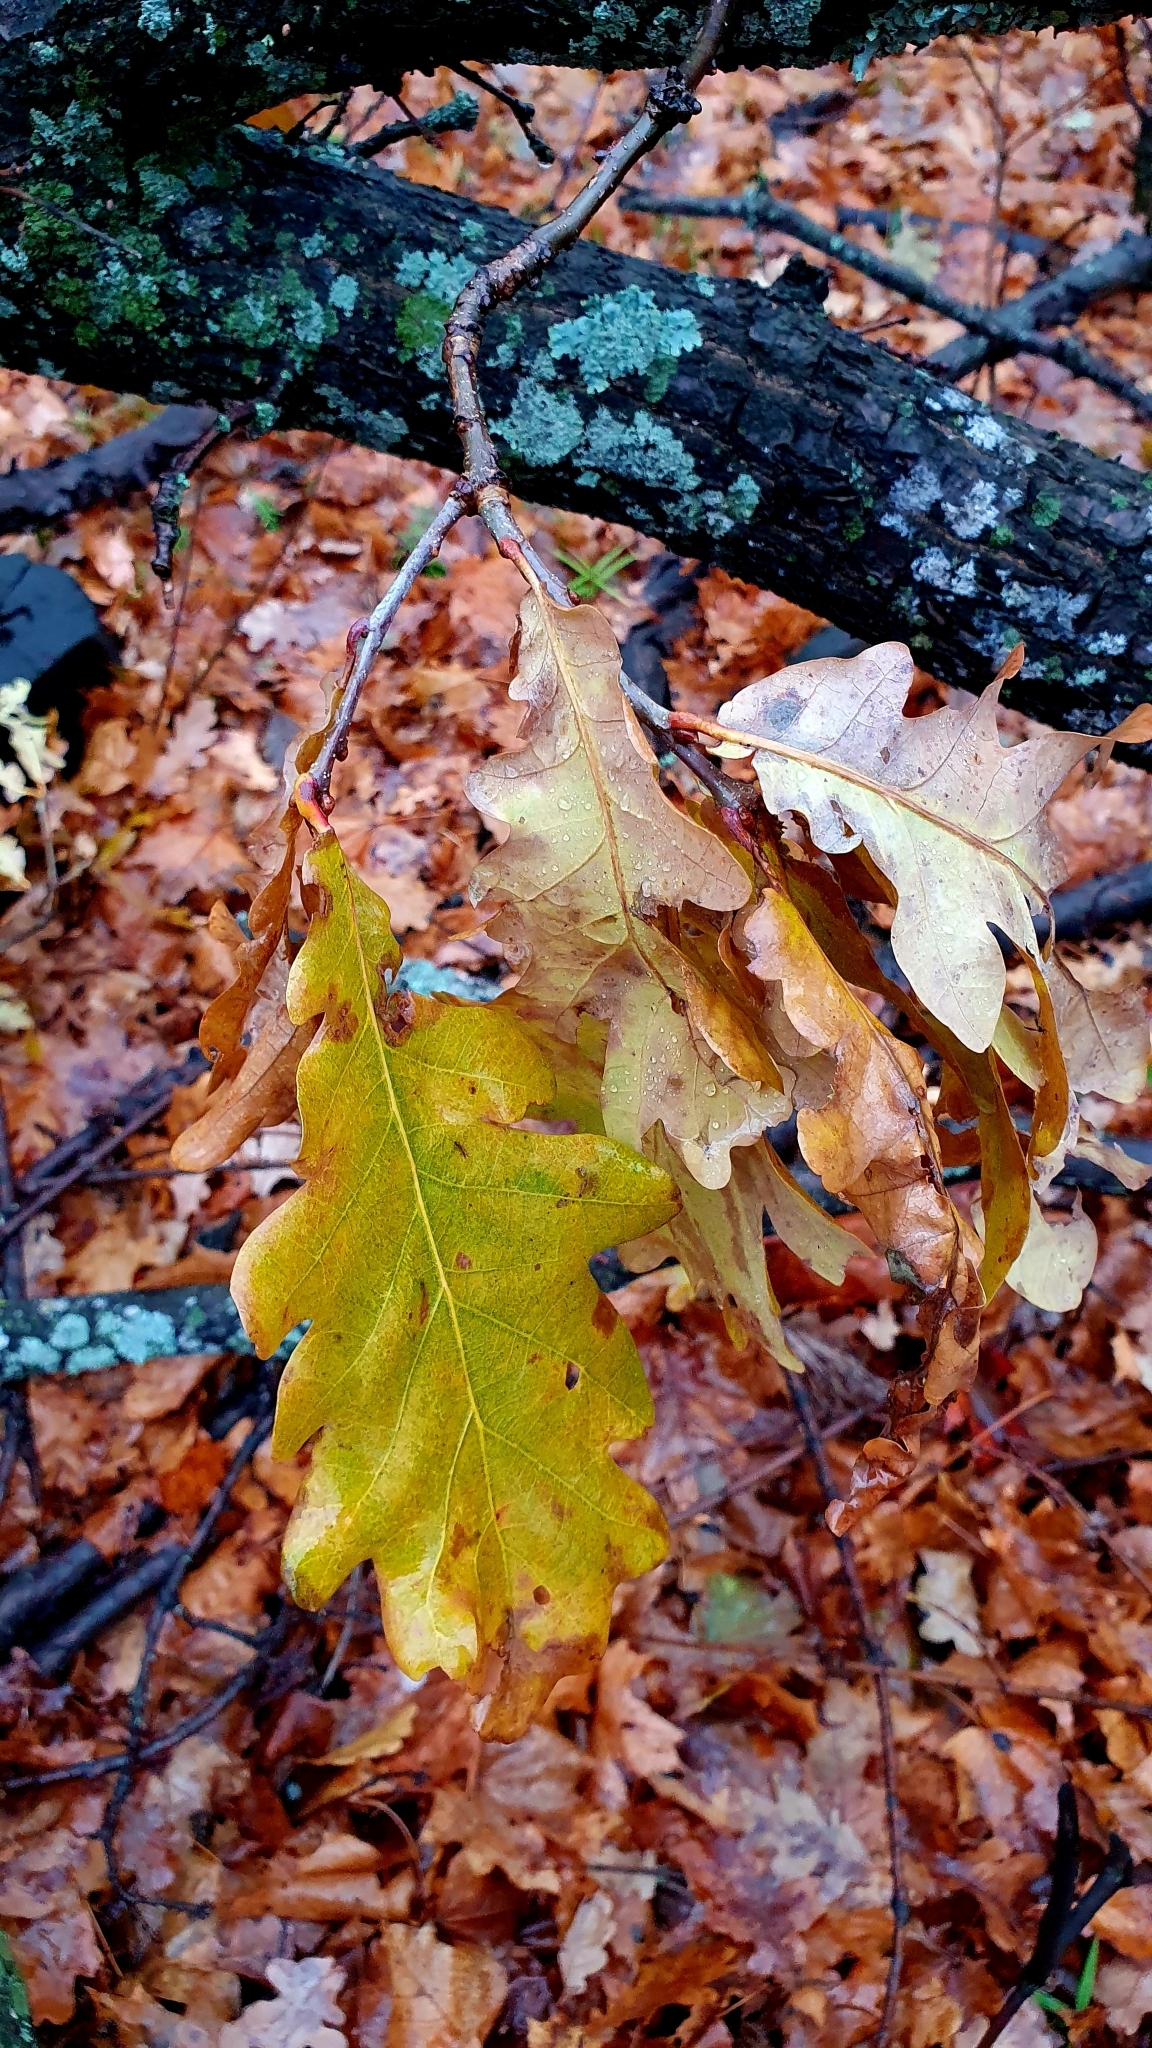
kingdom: Plantae
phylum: Tracheophyta
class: Magnoliopsida
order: Fagales
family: Fagaceae
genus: Quercus
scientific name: Quercus robur
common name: Pedunculate oak
